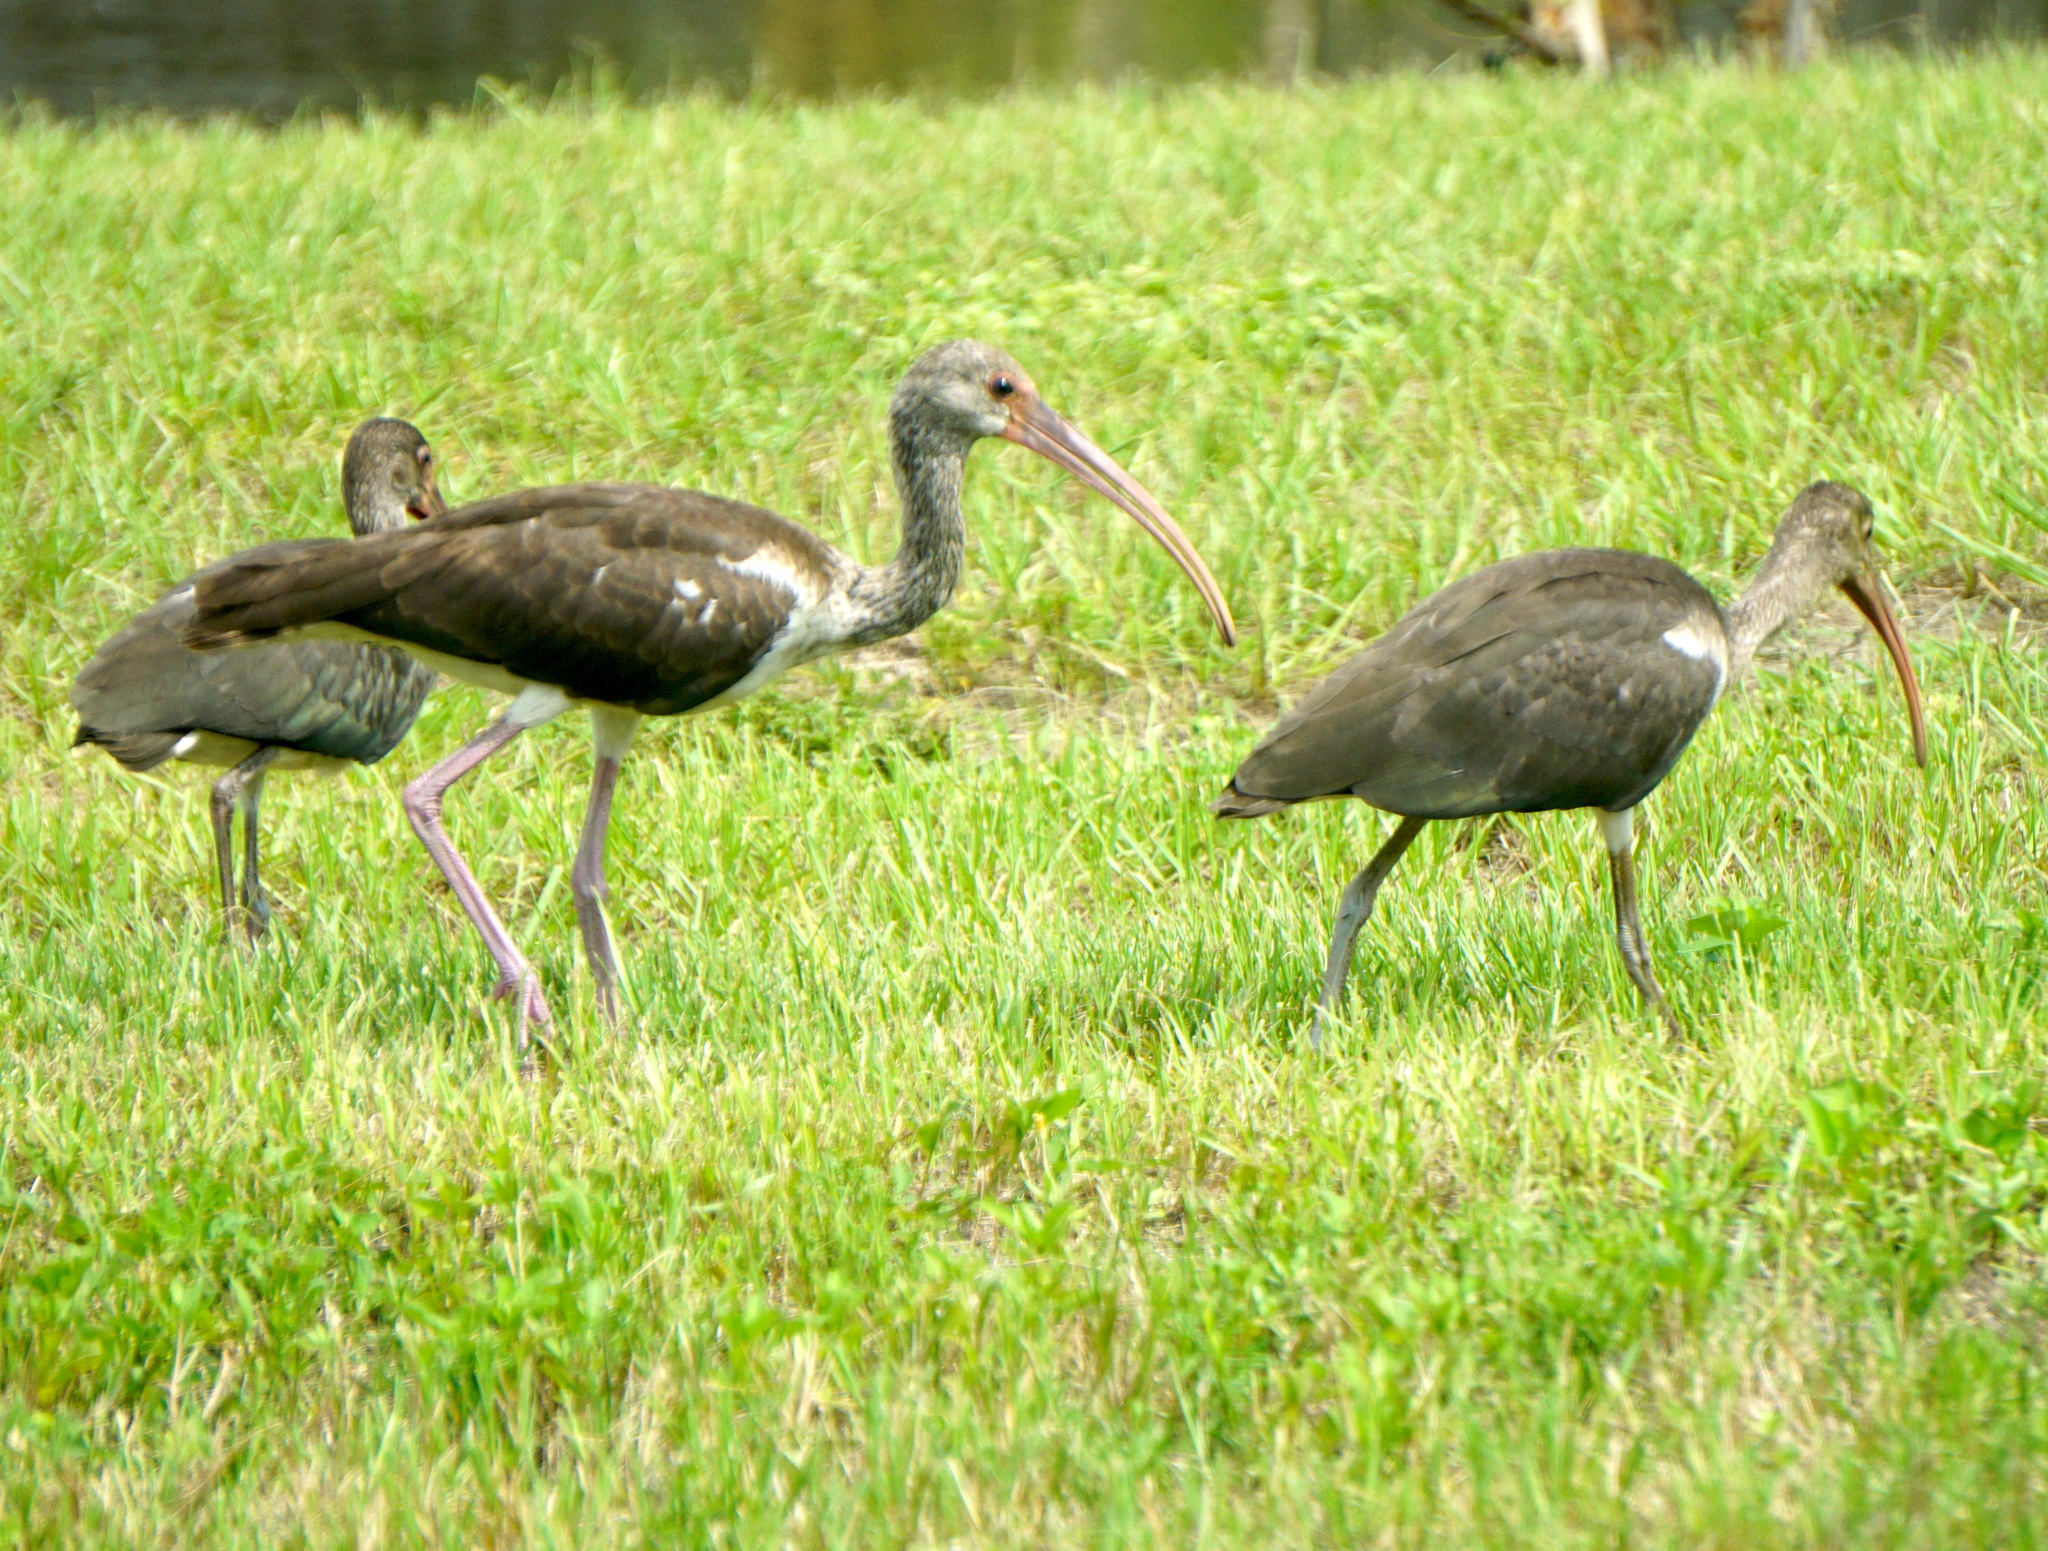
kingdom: Animalia
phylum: Chordata
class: Aves
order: Pelecaniformes
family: Threskiornithidae
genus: Eudocimus
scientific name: Eudocimus albus
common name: White ibis
